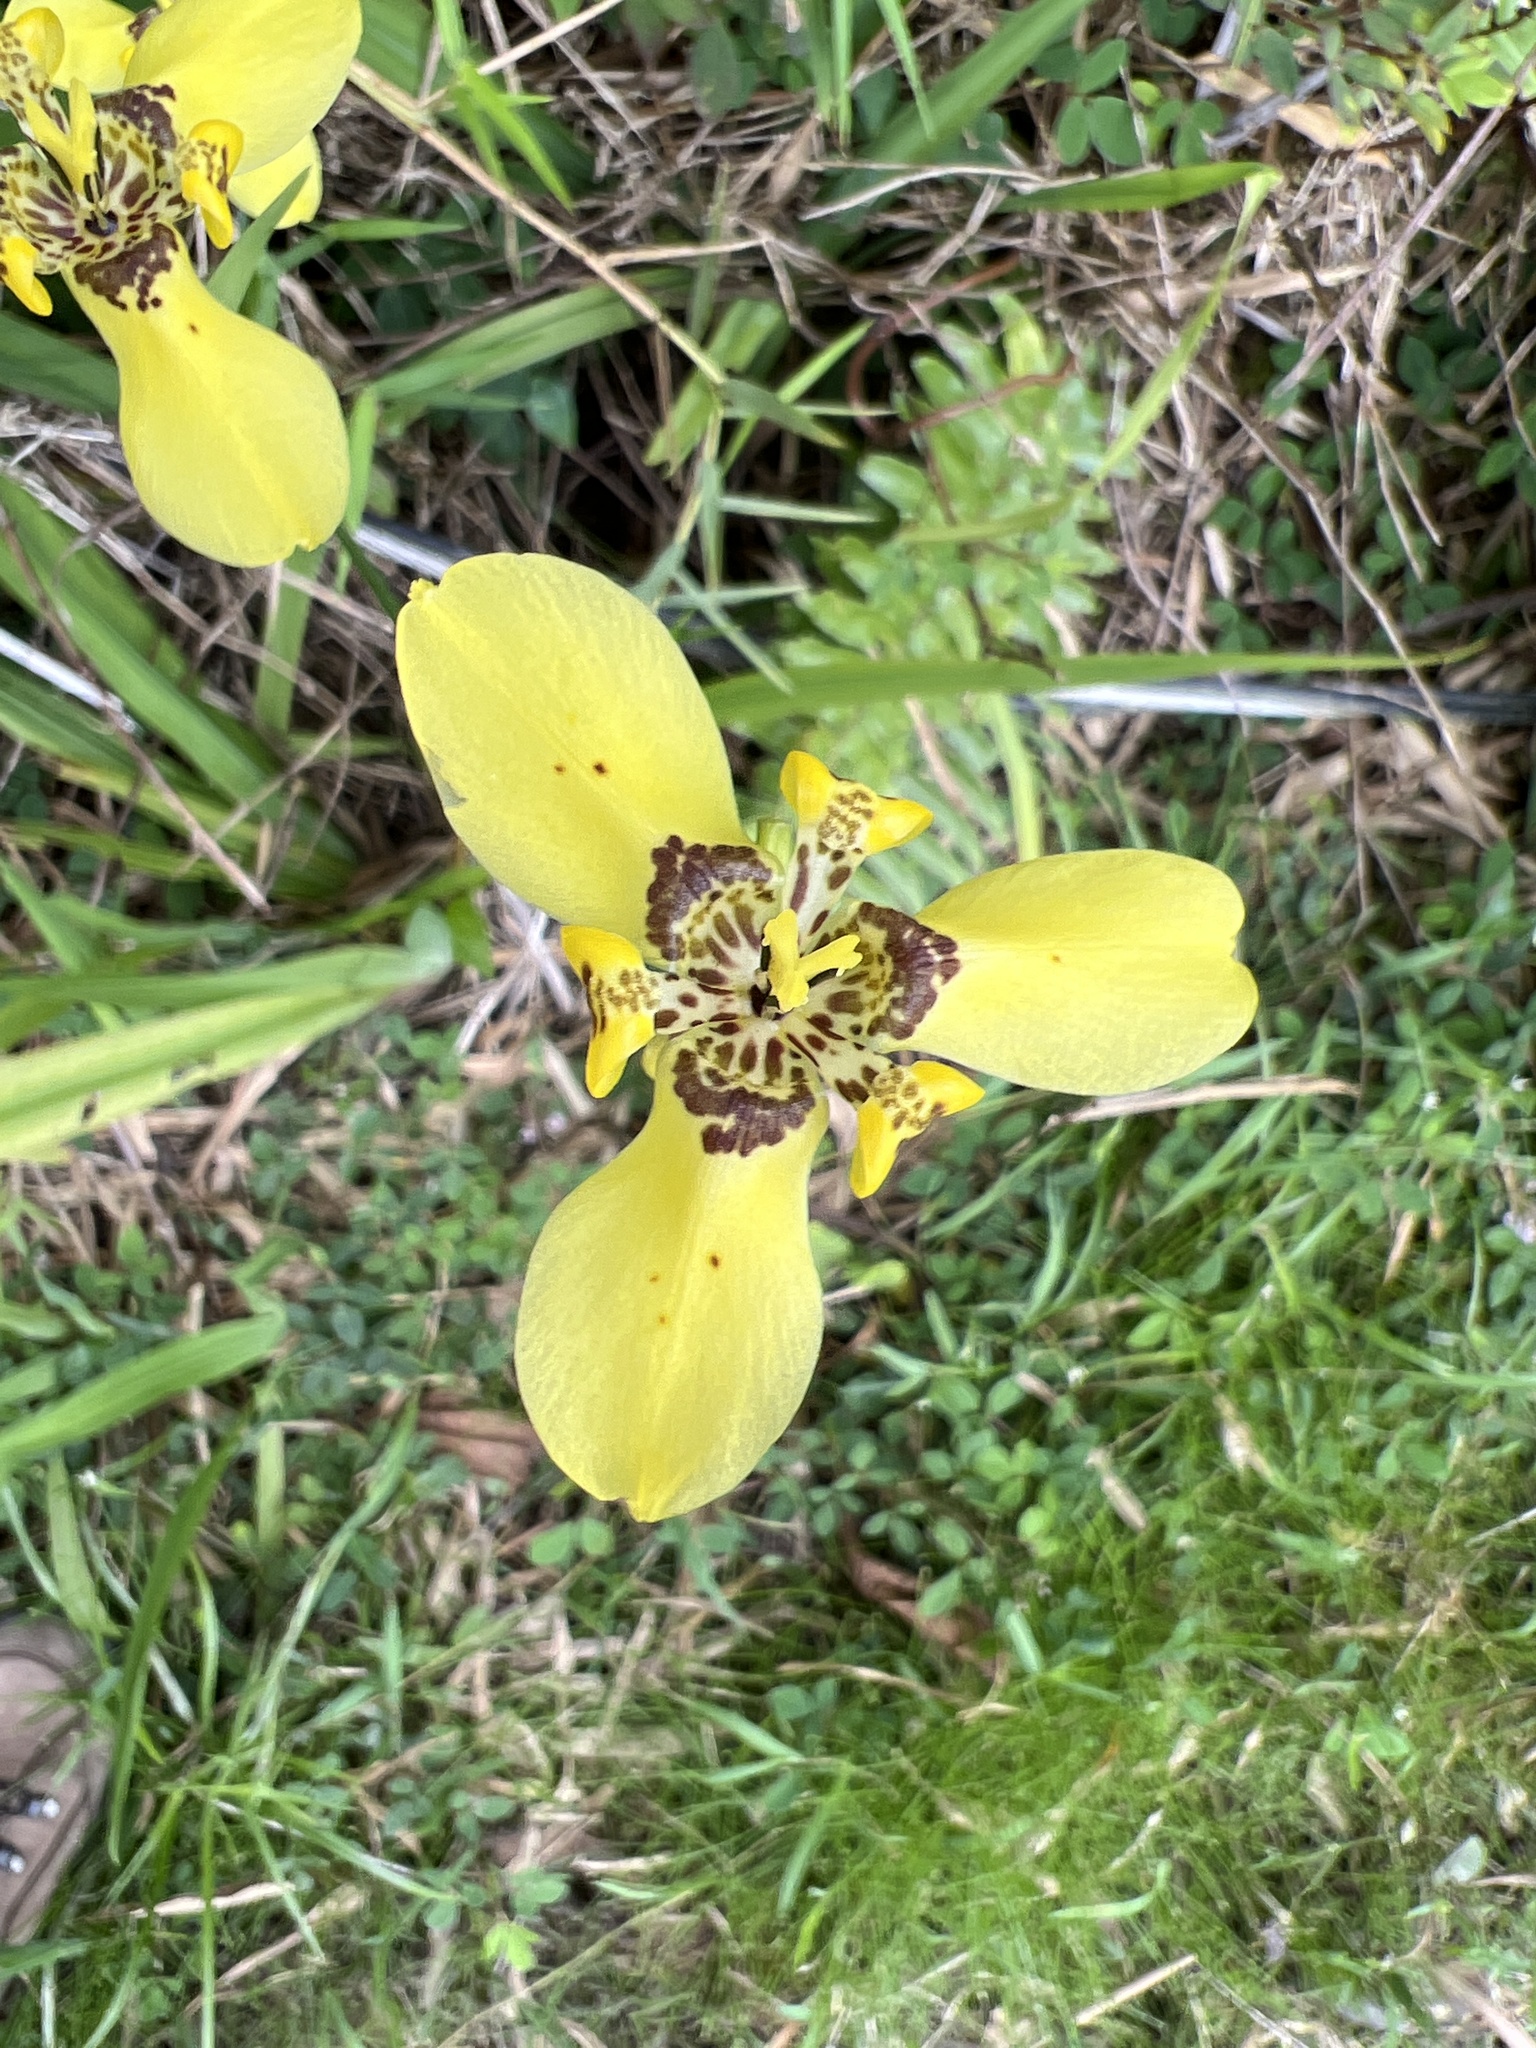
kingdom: Plantae
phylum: Tracheophyta
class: Liliopsida
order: Asparagales
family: Iridaceae
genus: Trimezia
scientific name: Trimezia steyermarkii
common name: Trimezia
